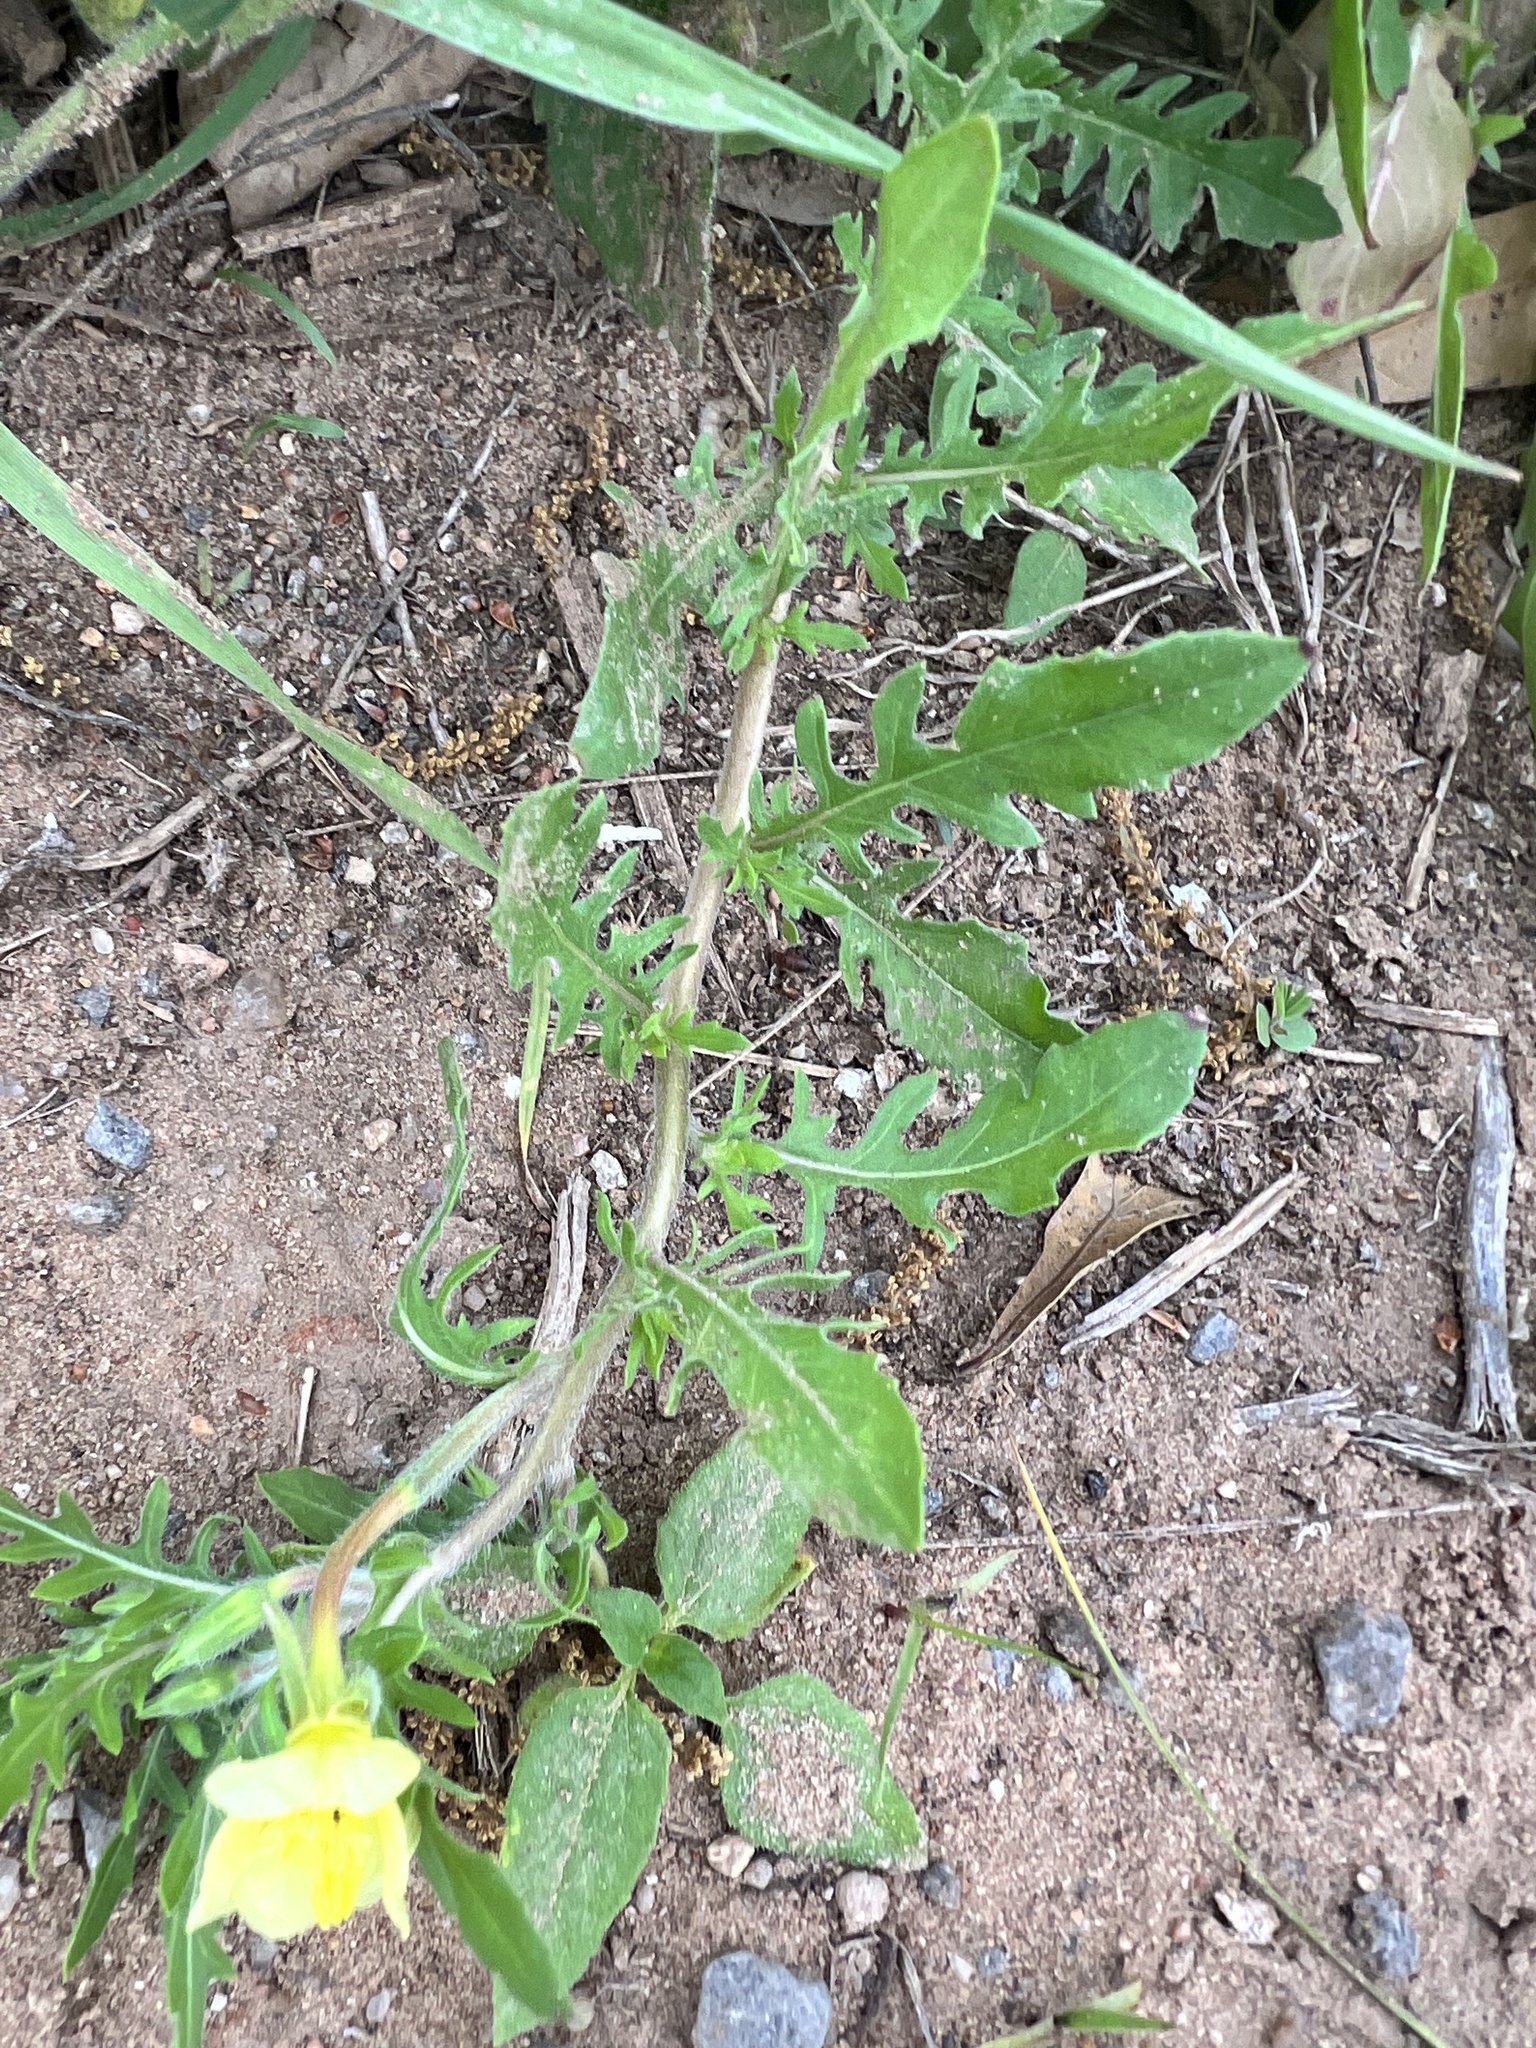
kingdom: Plantae
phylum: Tracheophyta
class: Magnoliopsida
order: Myrtales
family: Onagraceae
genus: Oenothera
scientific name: Oenothera laciniata
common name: Cut-leaved evening-primrose
